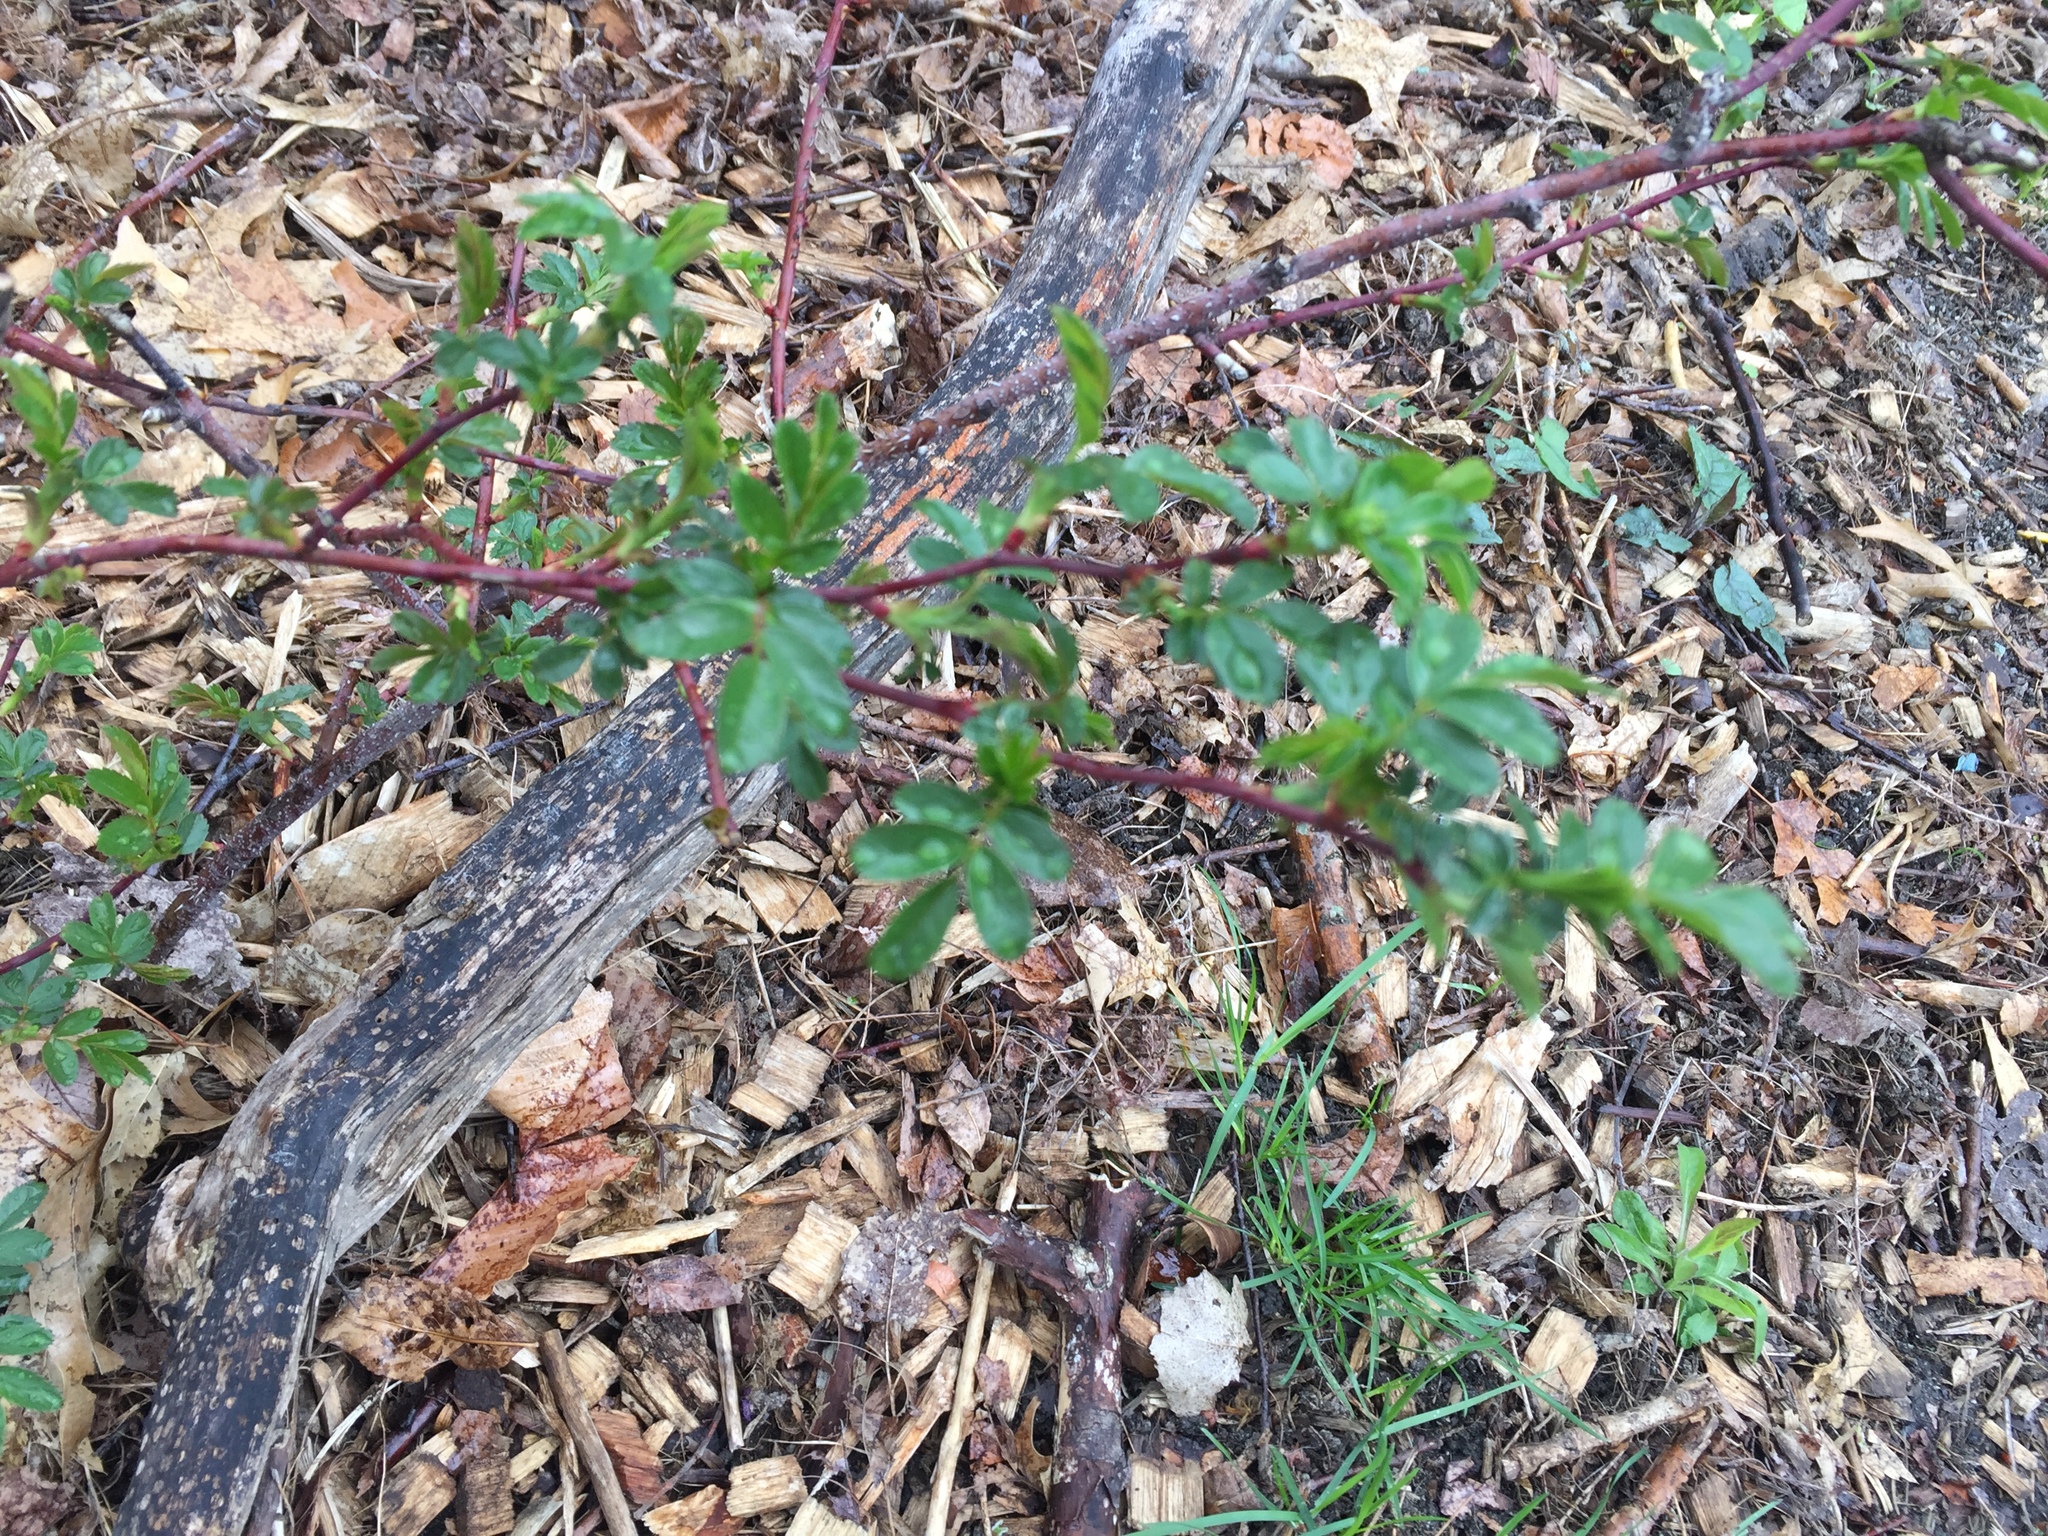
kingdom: Plantae
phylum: Tracheophyta
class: Magnoliopsida
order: Rosales
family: Rosaceae
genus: Rosa
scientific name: Rosa multiflora
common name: Multiflora rose
